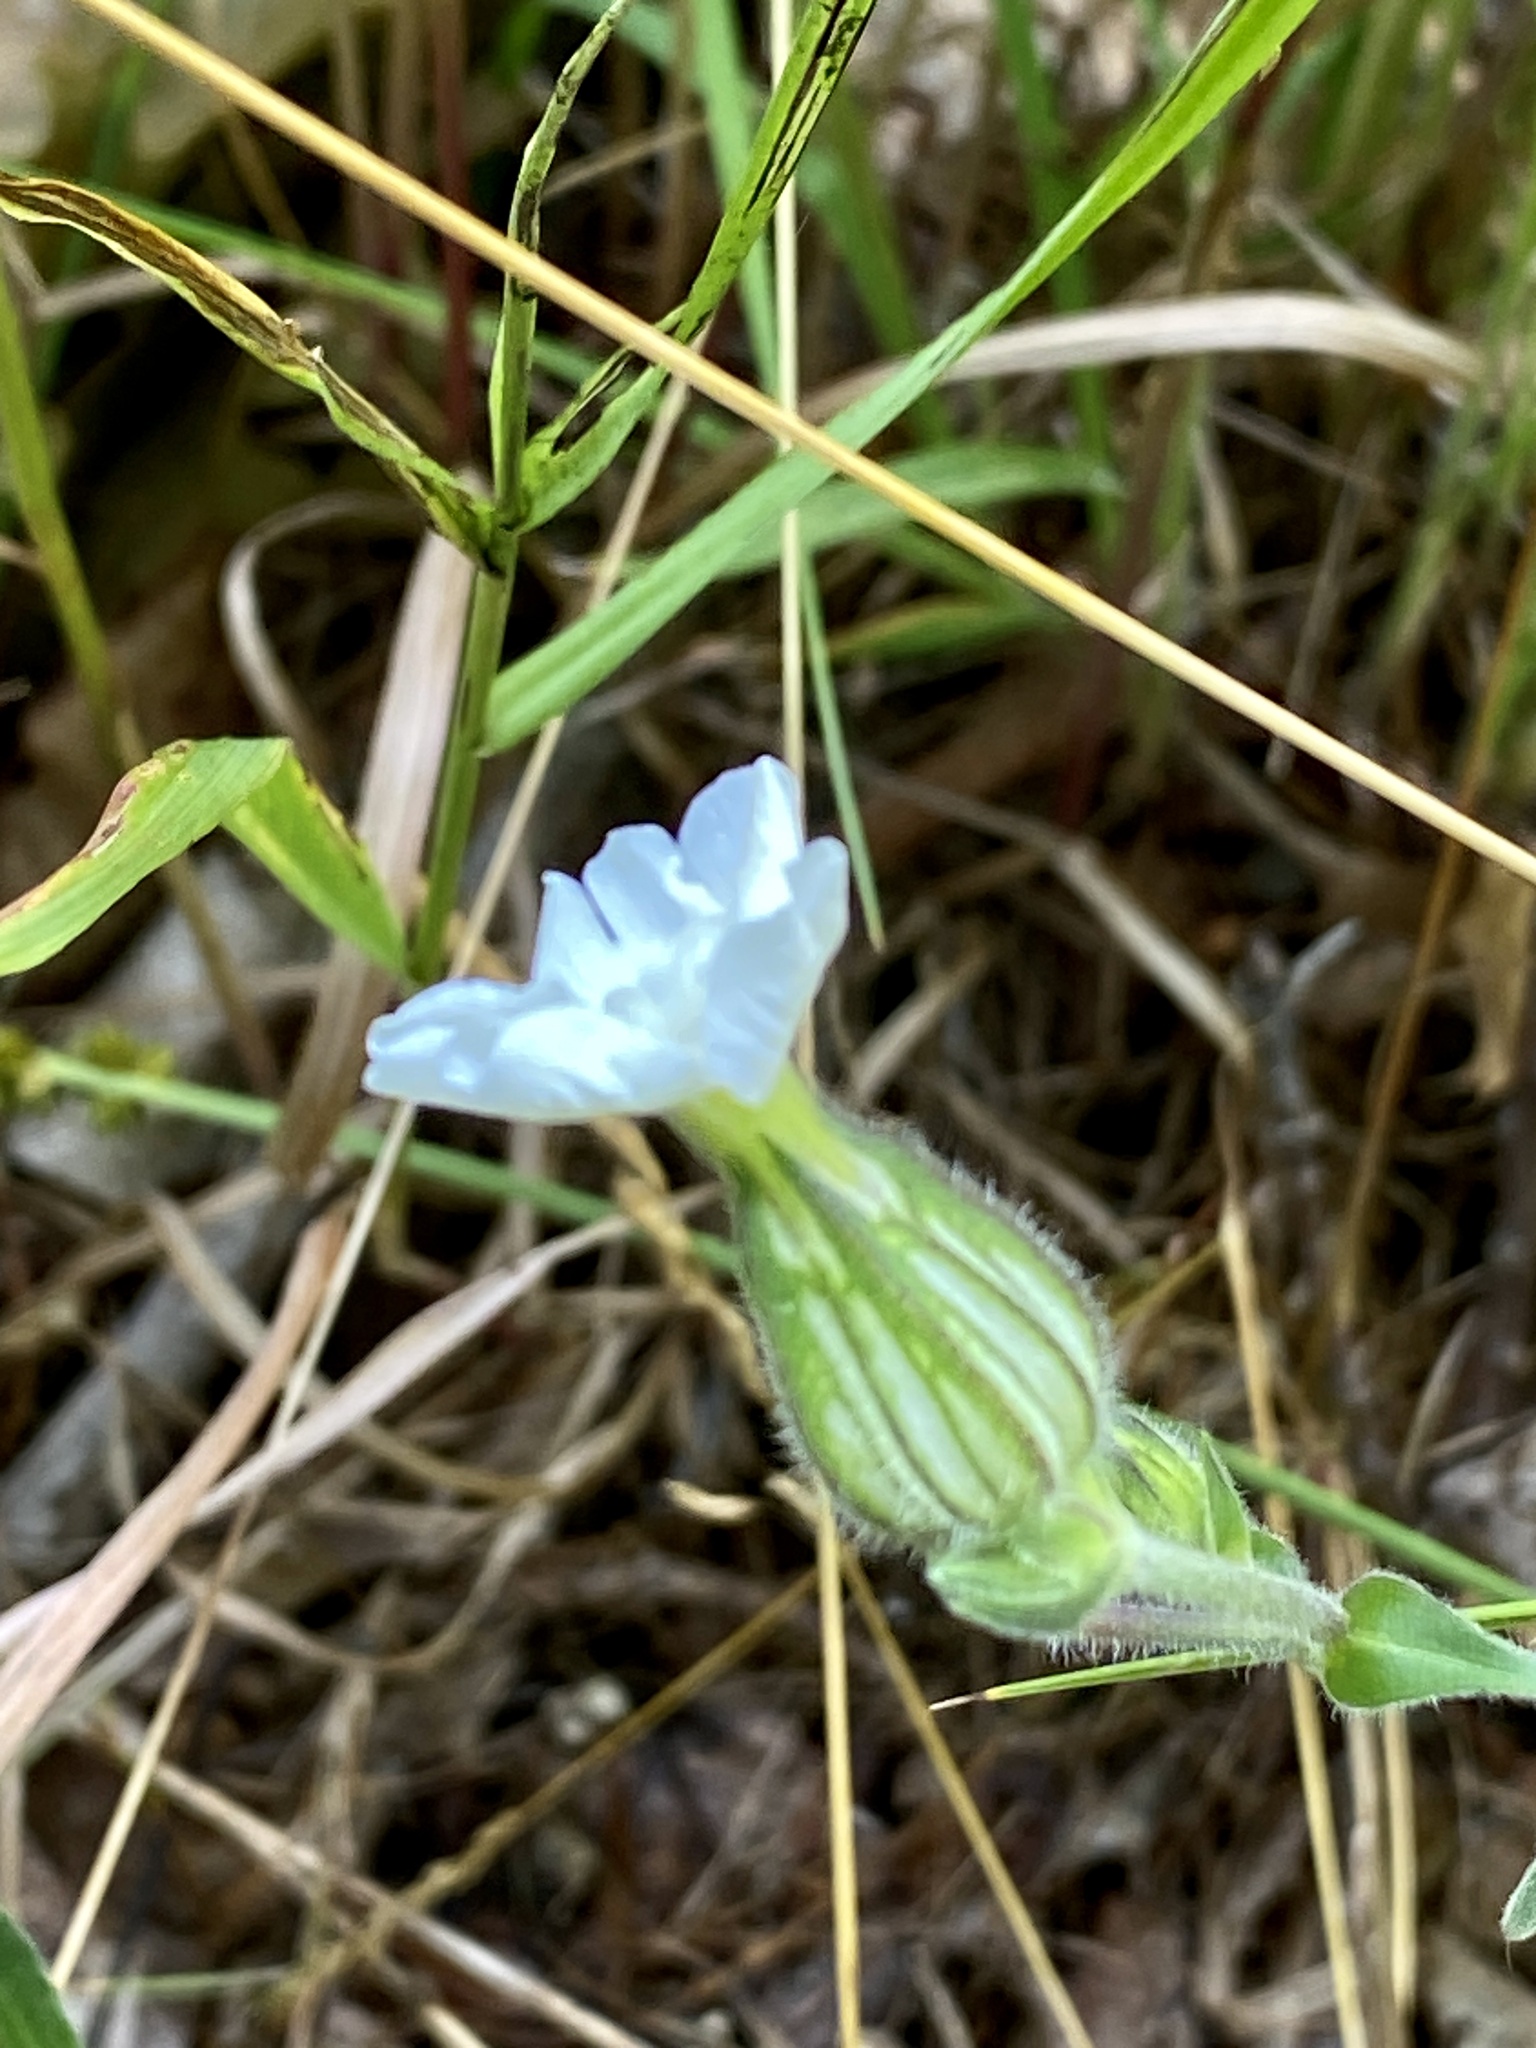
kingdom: Plantae
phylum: Tracheophyta
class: Magnoliopsida
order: Caryophyllales
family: Caryophyllaceae
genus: Silene
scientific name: Silene latifolia
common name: White campion
